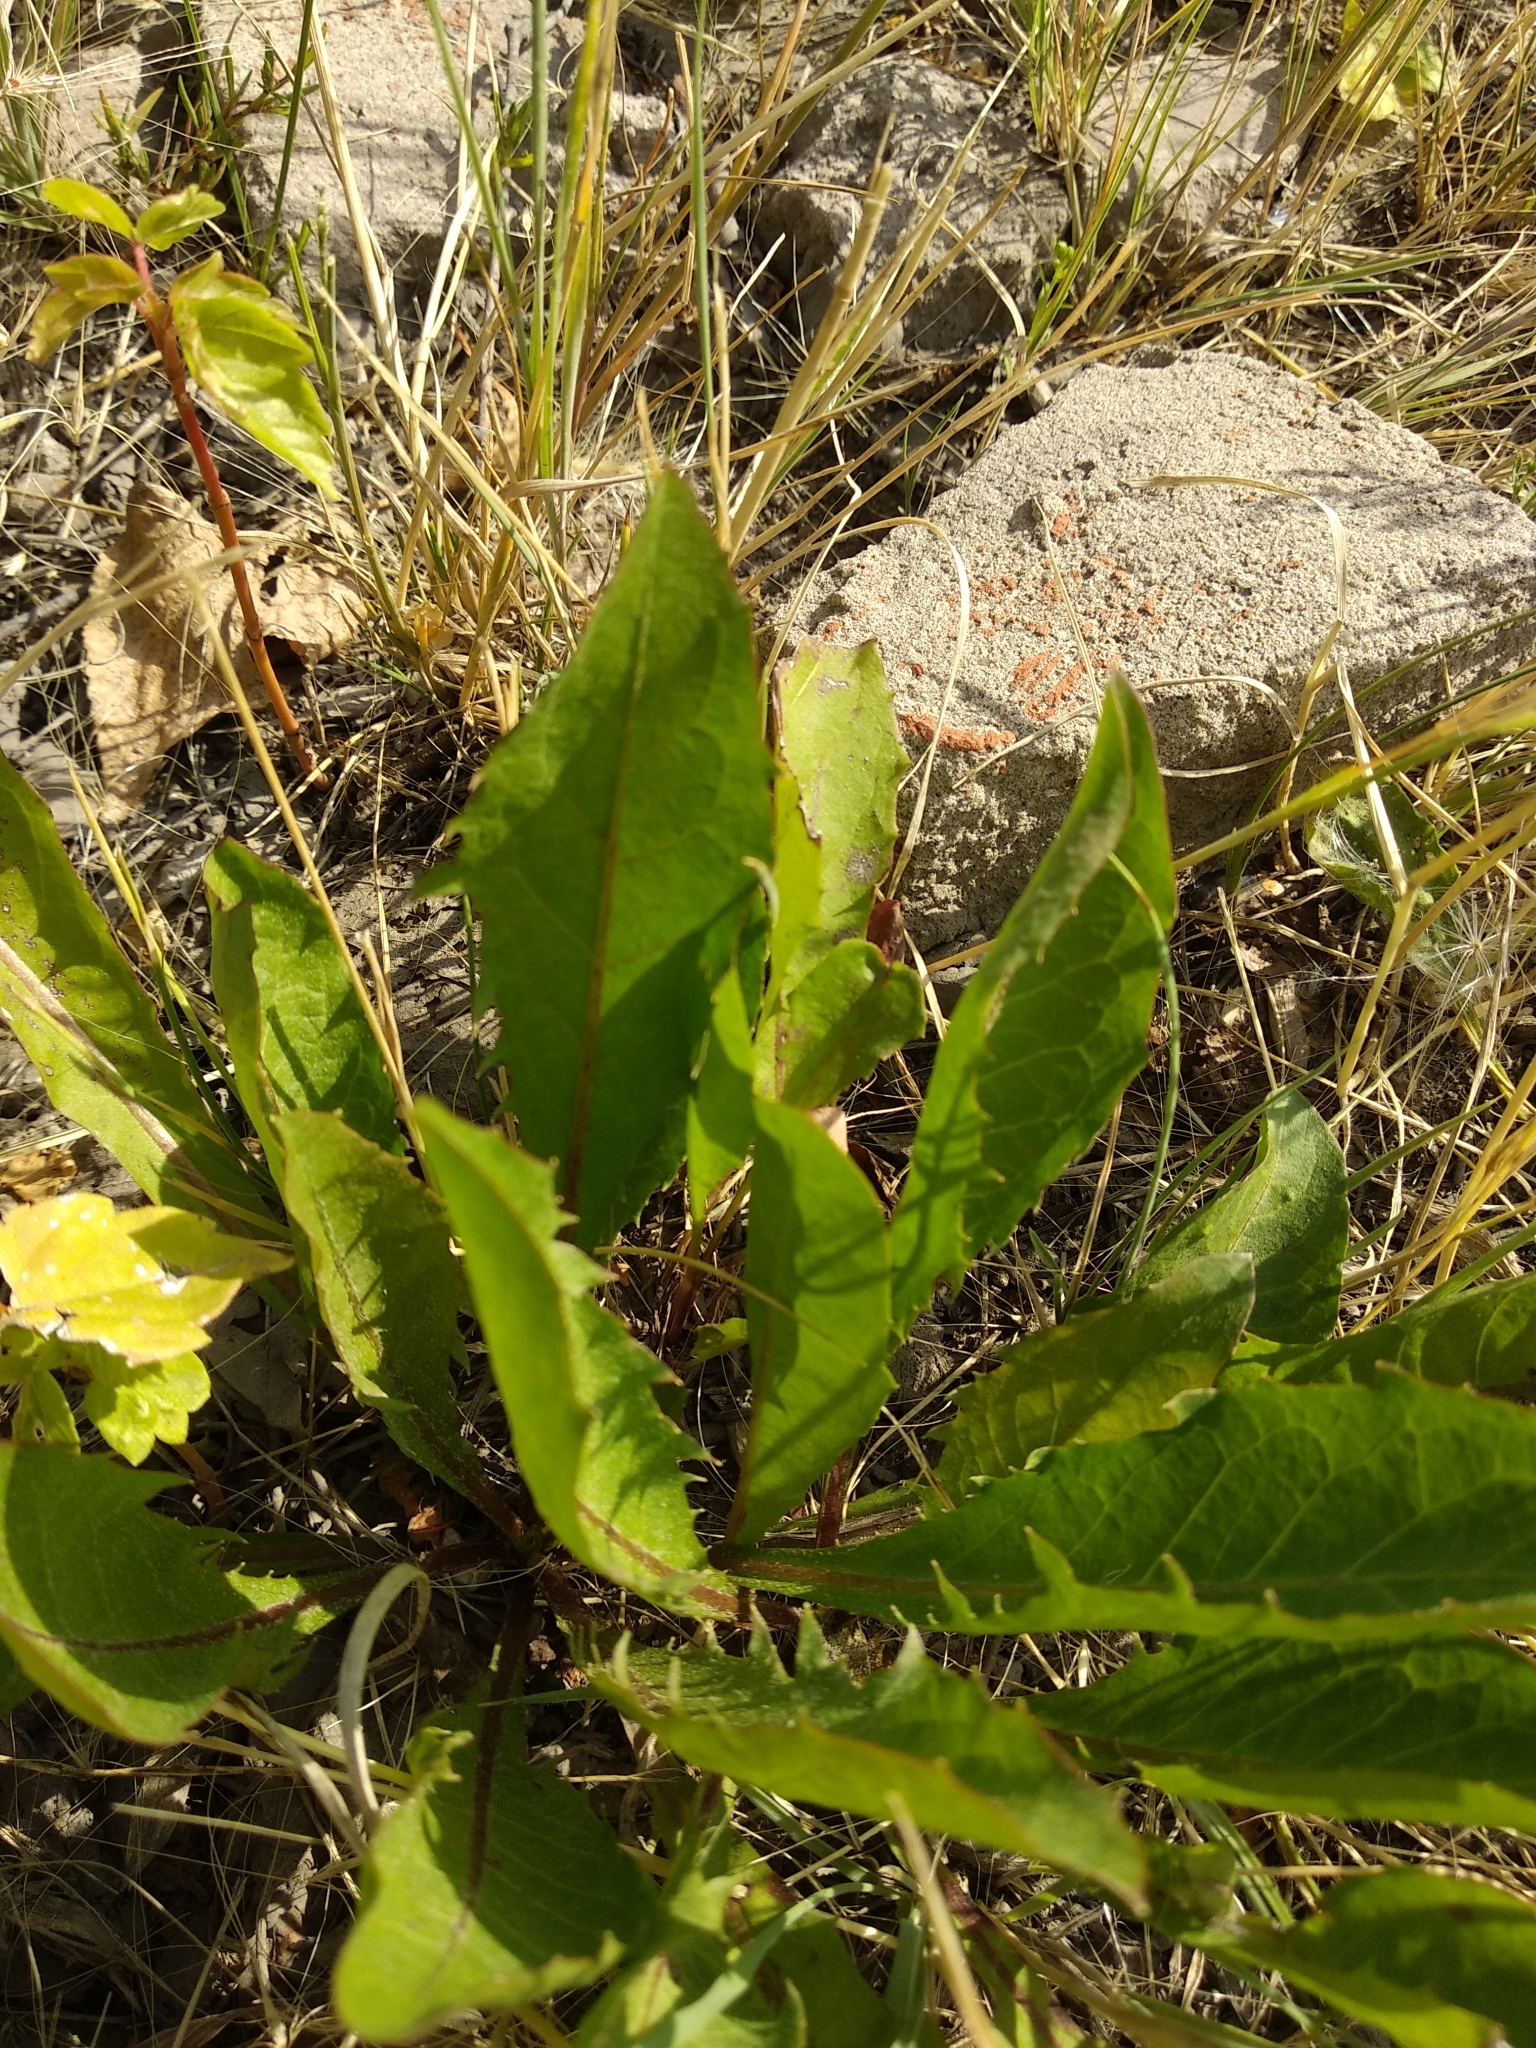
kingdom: Plantae
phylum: Tracheophyta
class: Magnoliopsida
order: Asterales
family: Asteraceae
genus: Taraxacum
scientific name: Taraxacum officinale
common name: Common dandelion
